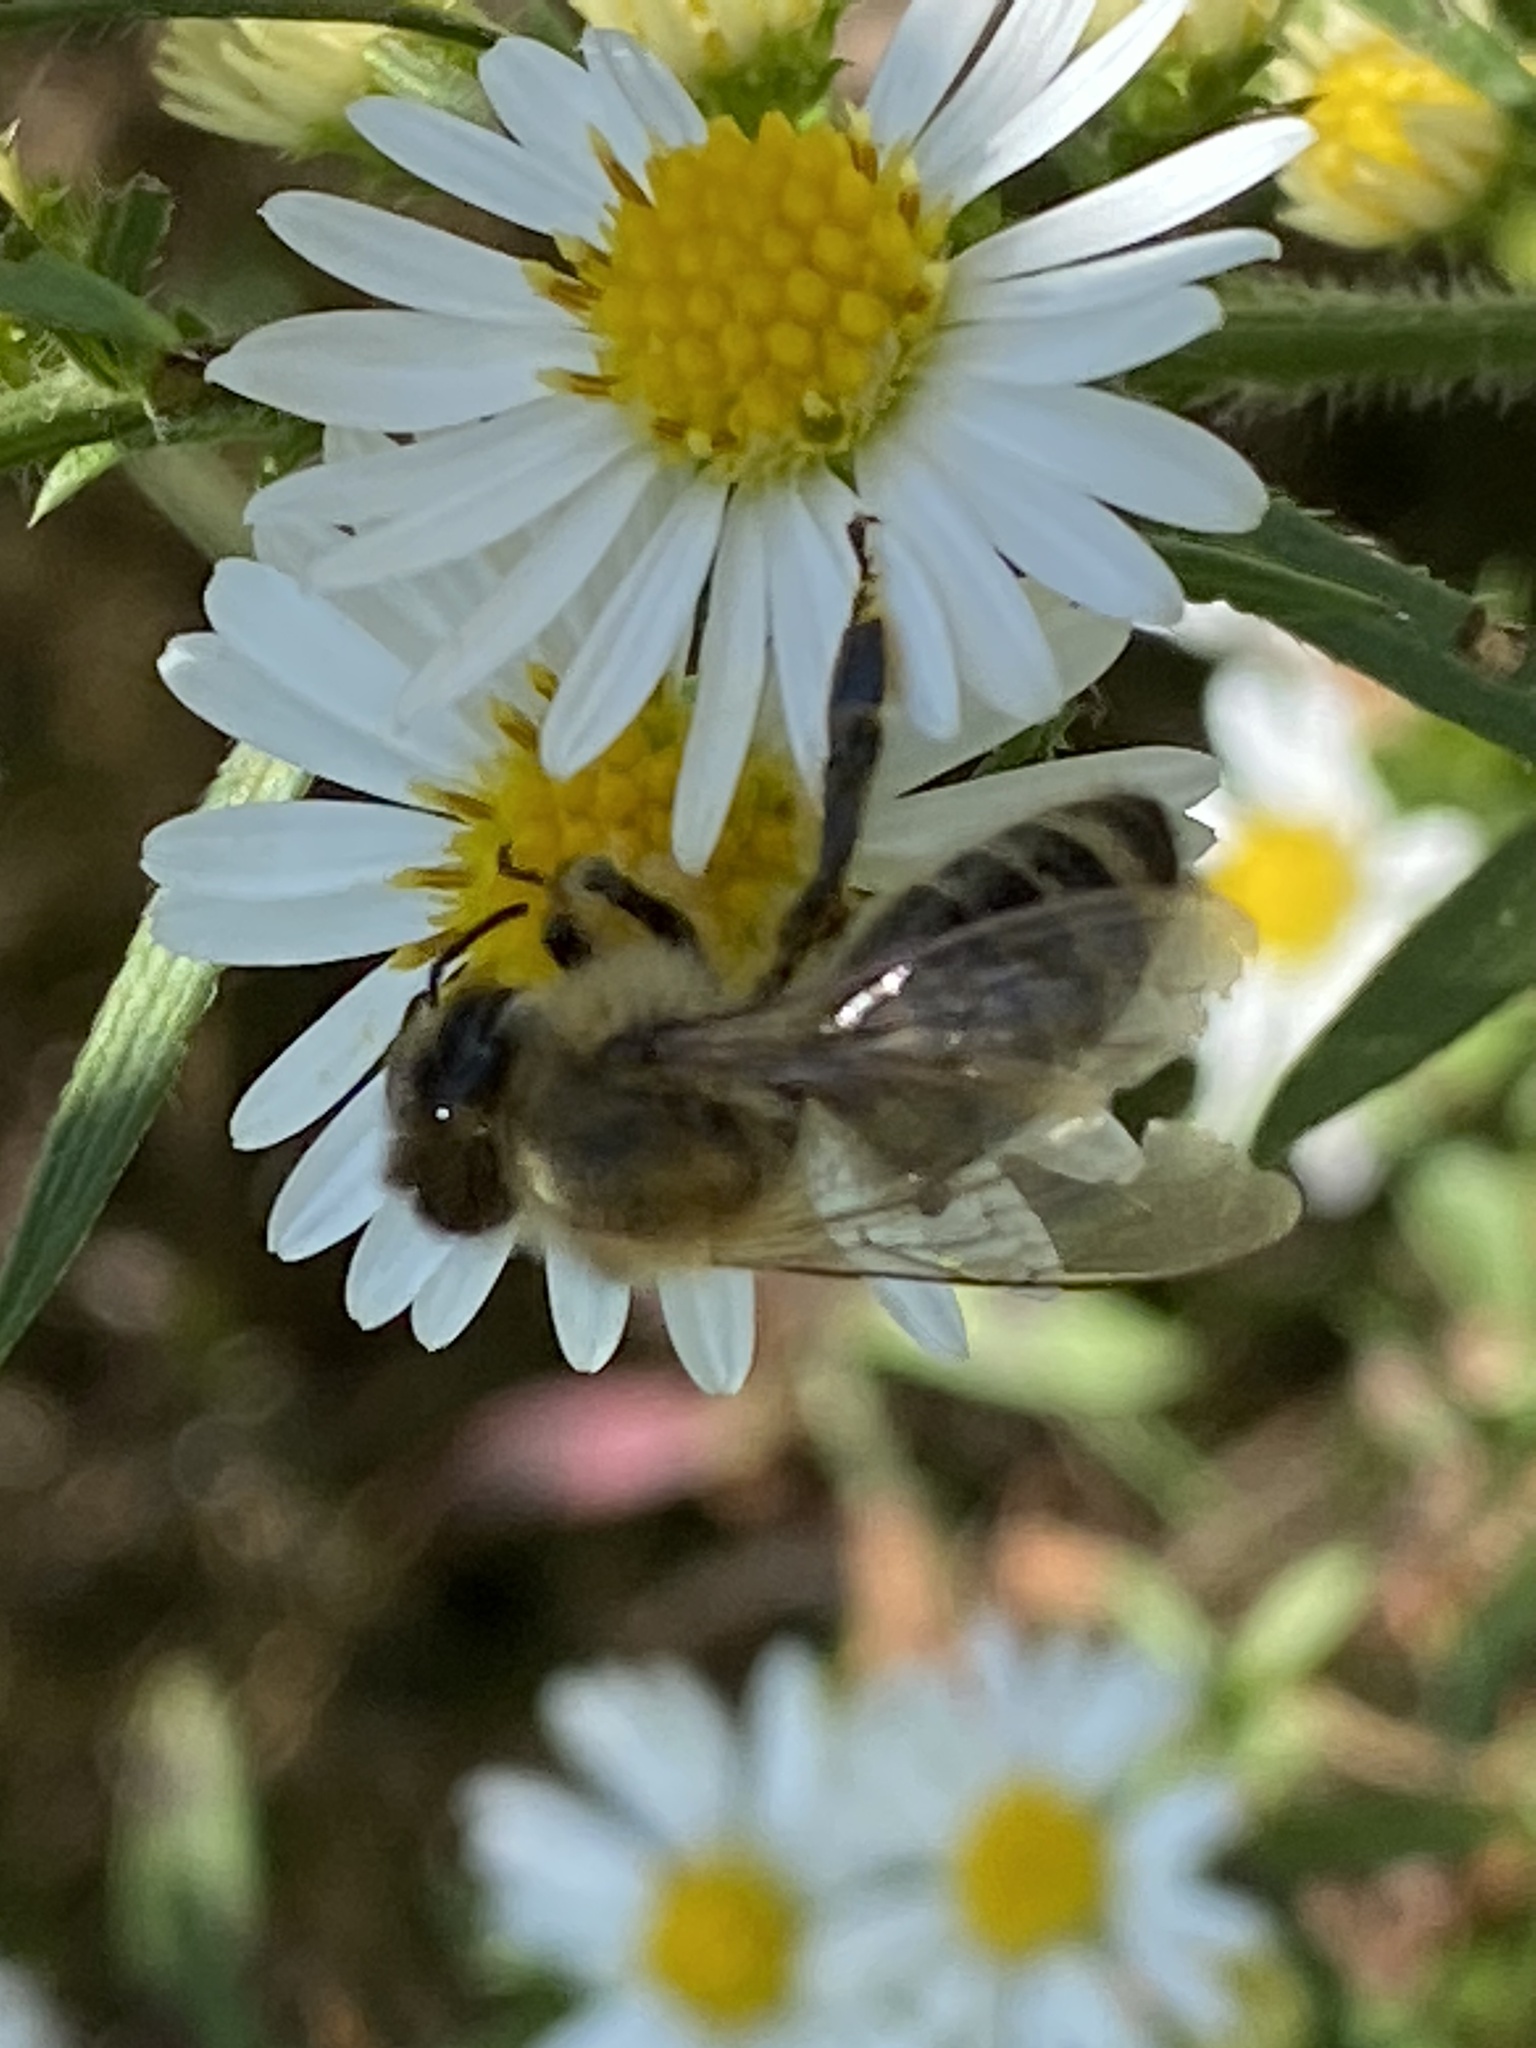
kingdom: Animalia
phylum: Arthropoda
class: Insecta
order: Hymenoptera
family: Apidae
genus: Apis
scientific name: Apis mellifera
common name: Honey bee
